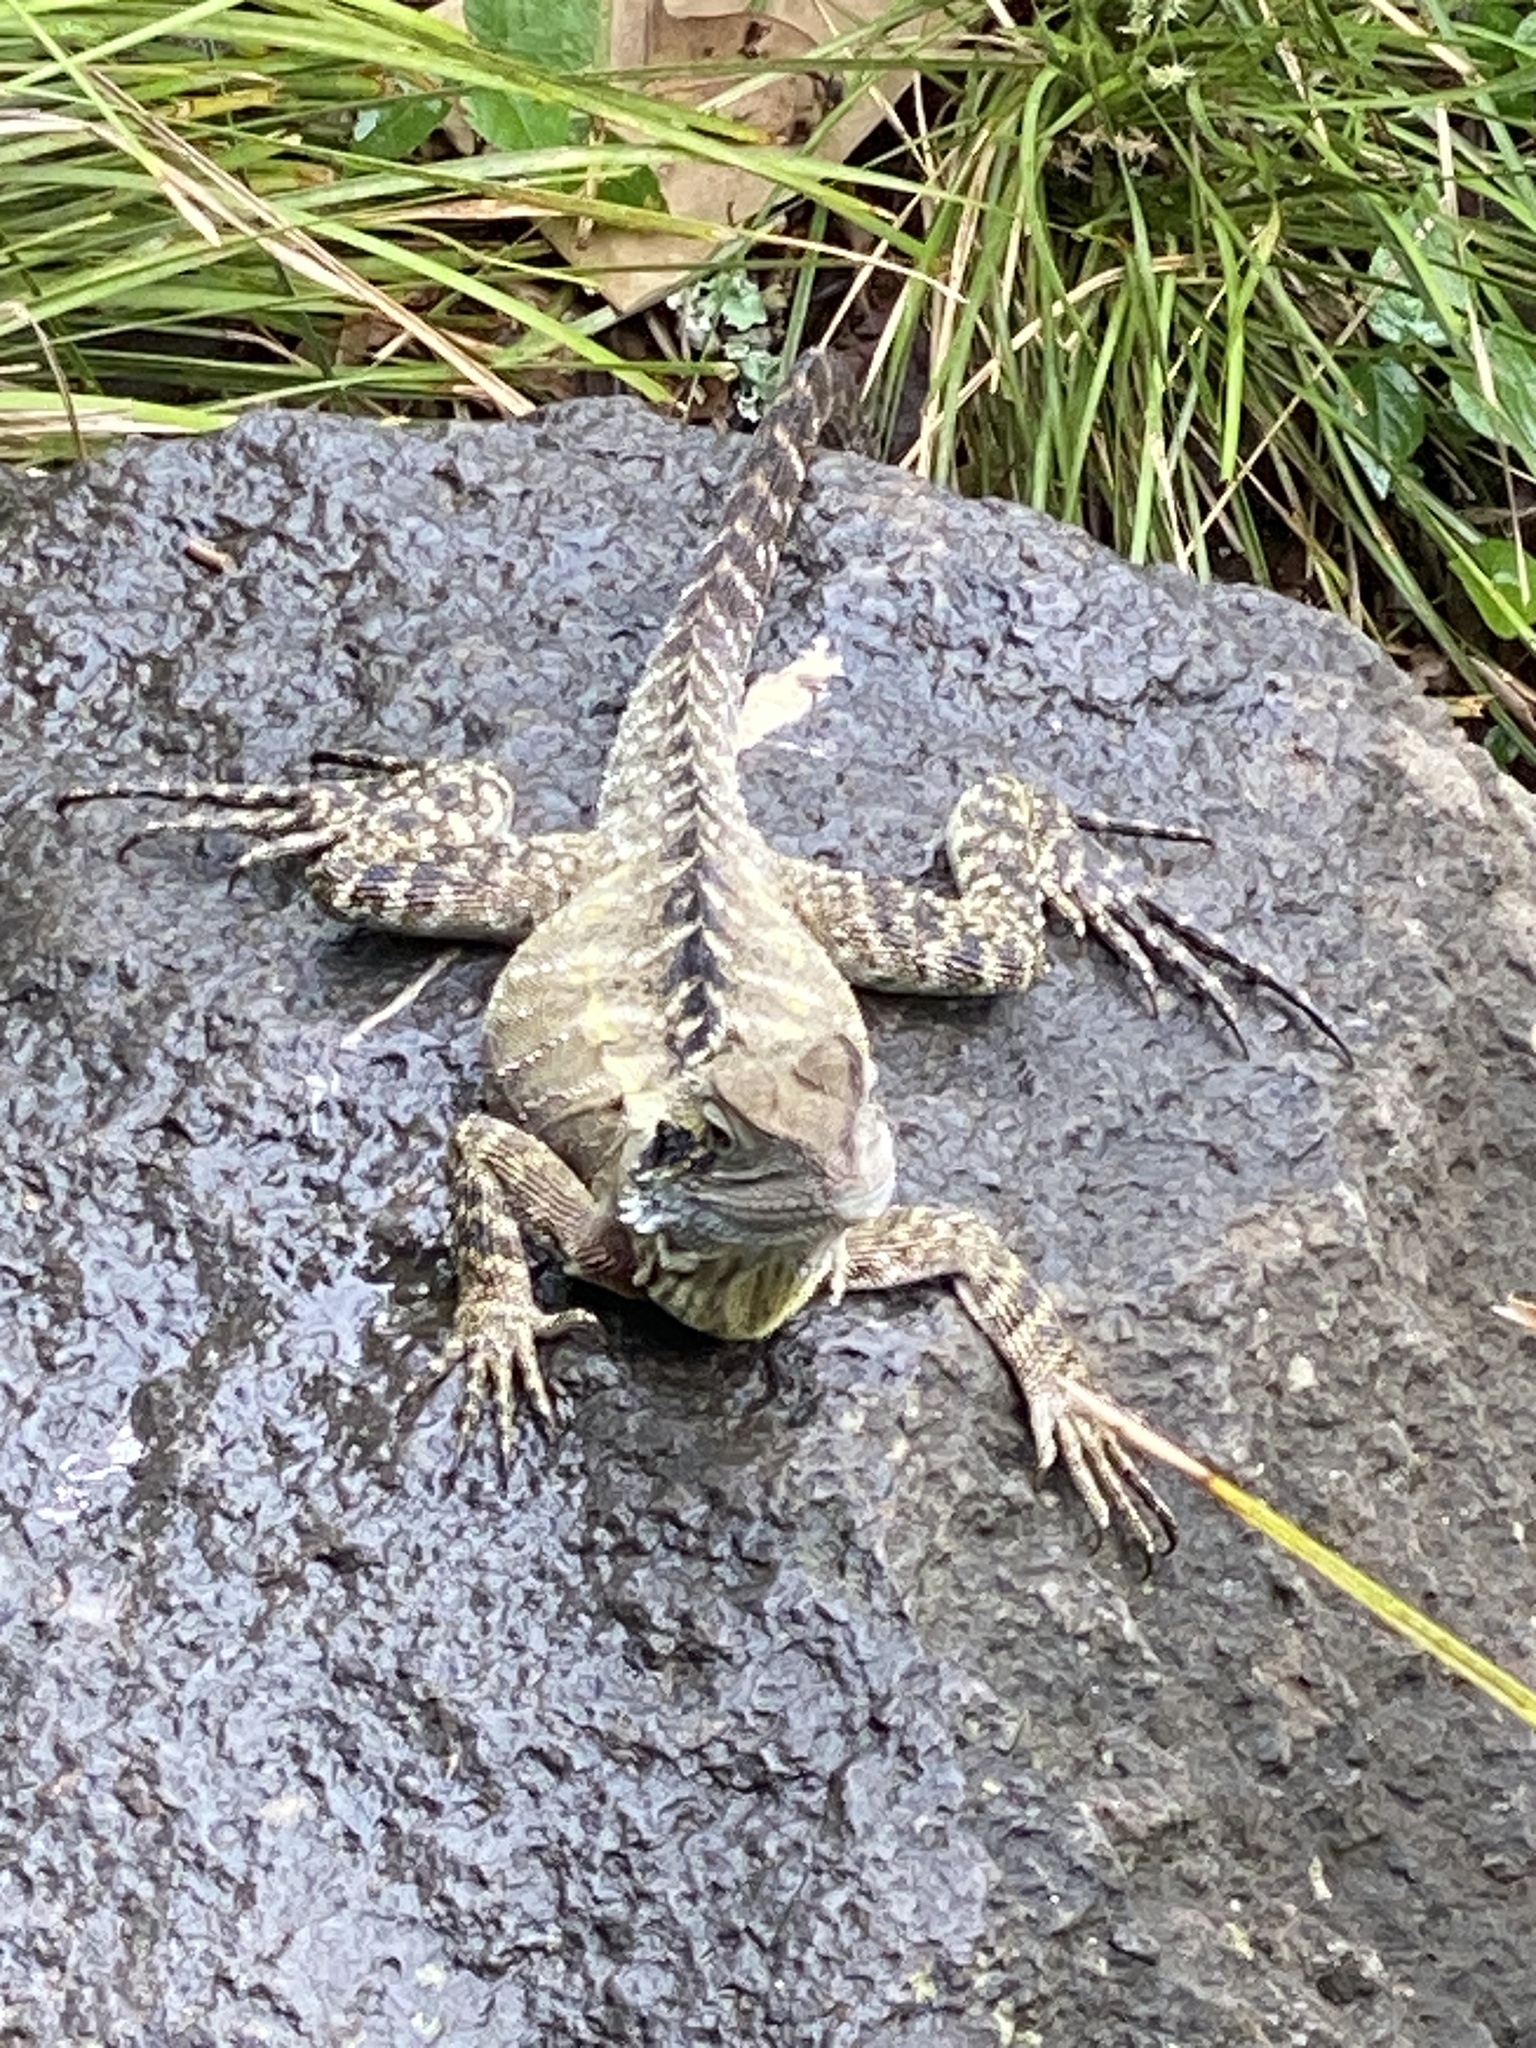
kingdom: Animalia
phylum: Chordata
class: Squamata
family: Agamidae
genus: Intellagama
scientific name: Intellagama lesueurii
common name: Eastern water dragon
